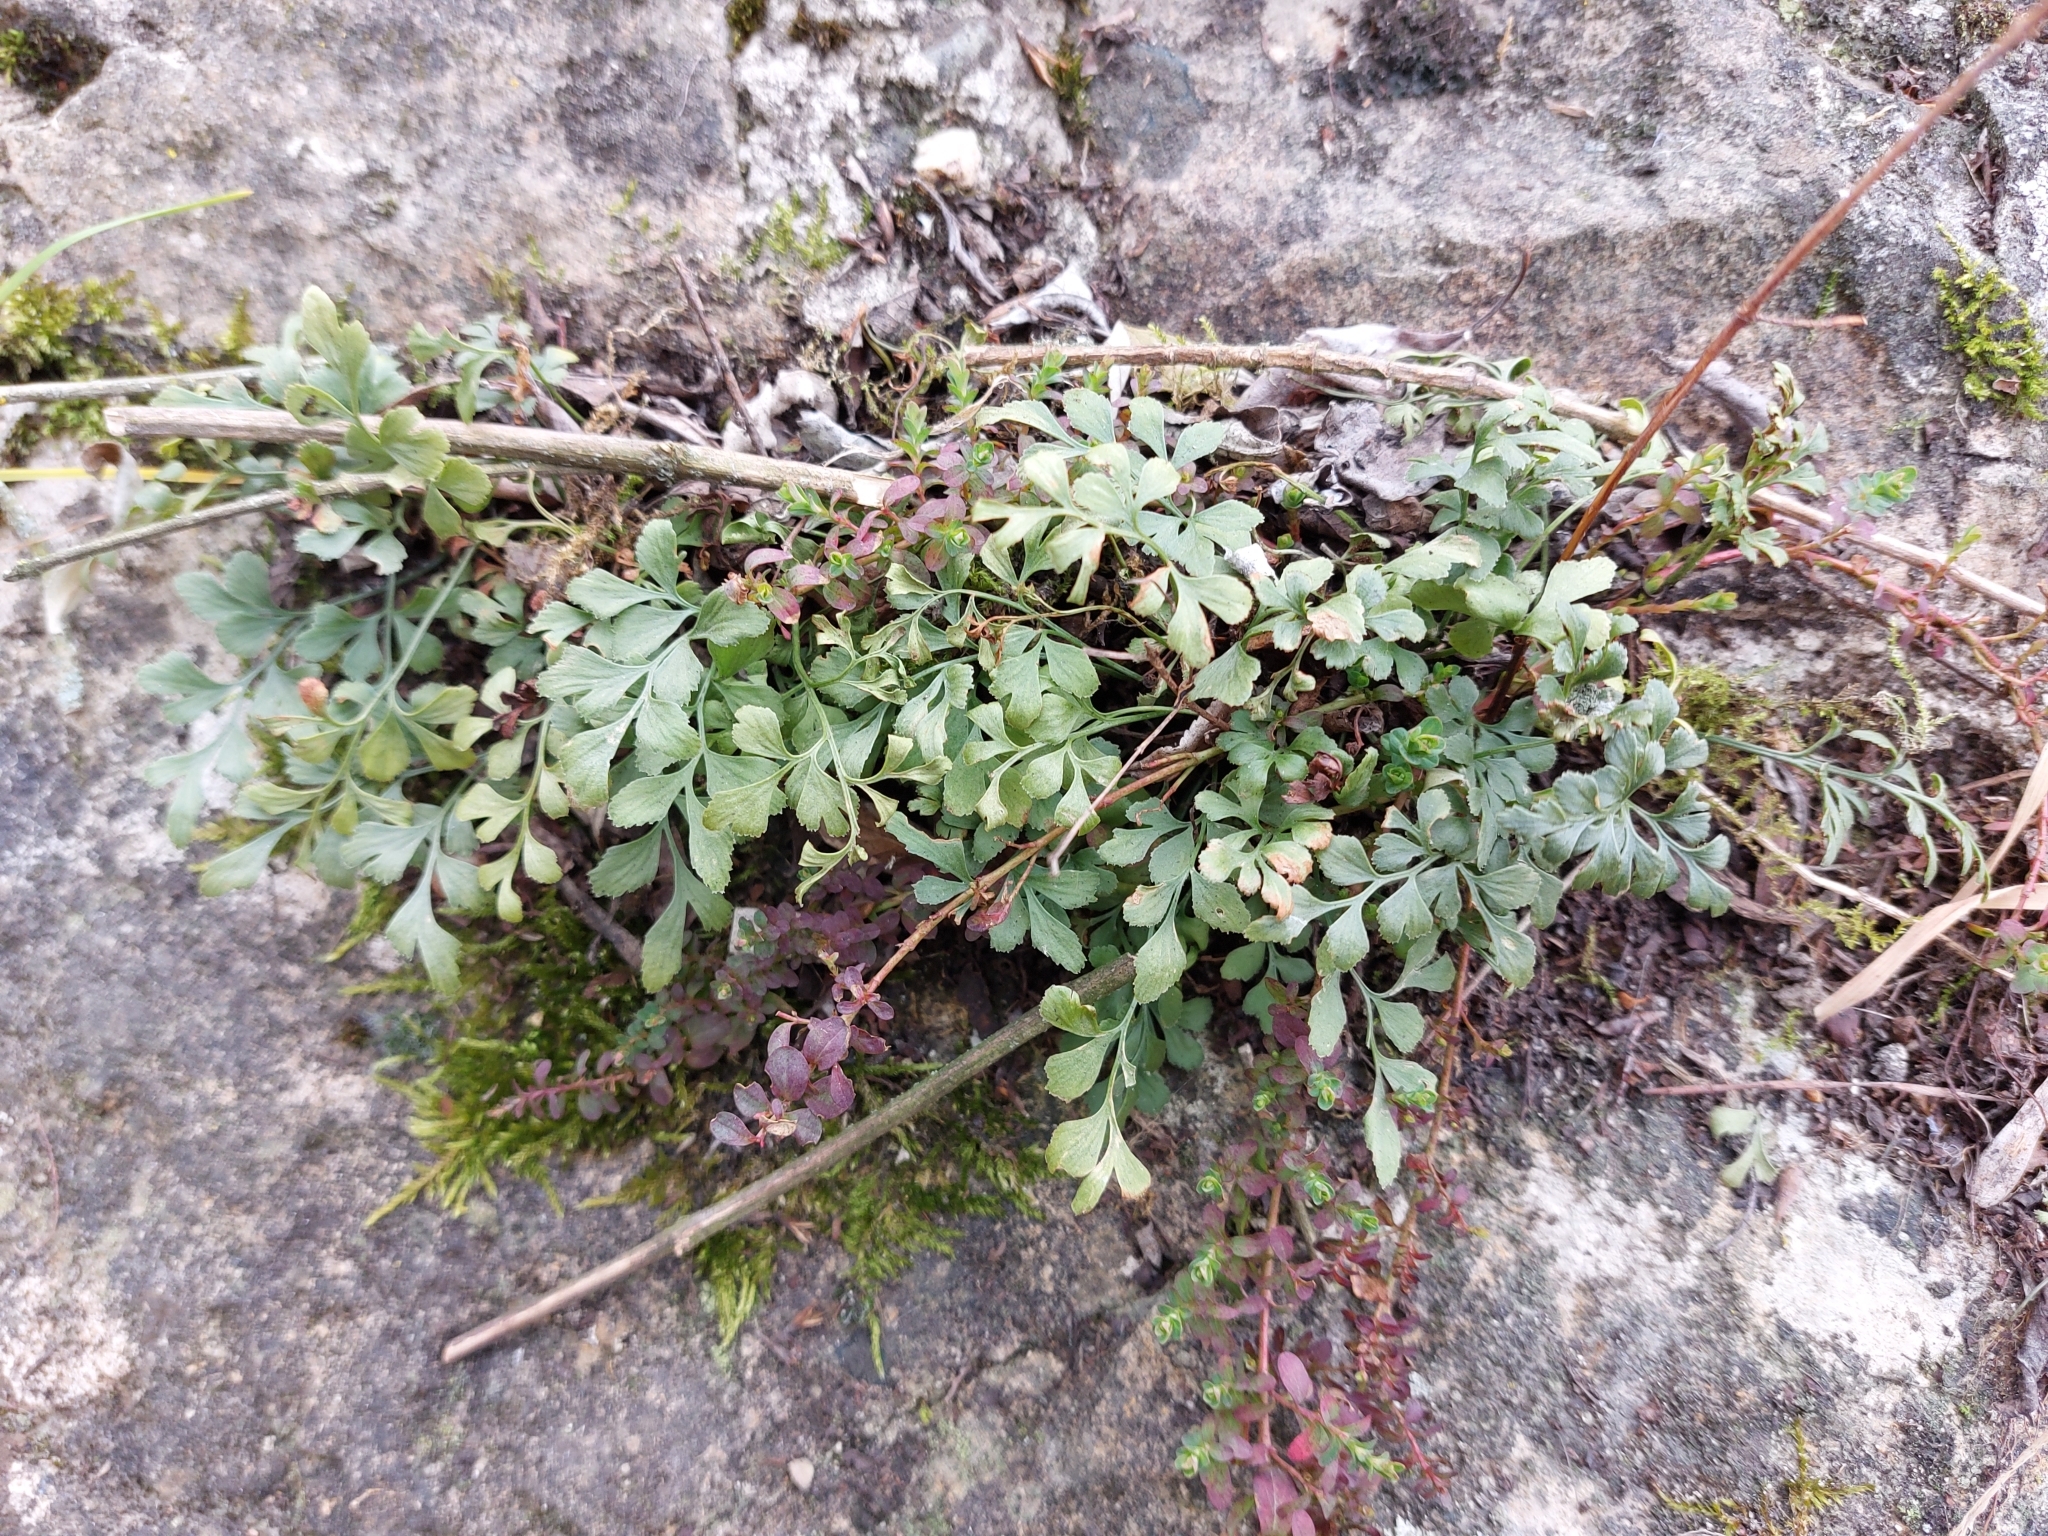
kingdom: Plantae
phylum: Tracheophyta
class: Polypodiopsida
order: Polypodiales
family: Aspleniaceae
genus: Asplenium
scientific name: Asplenium ruta-muraria
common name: Wall-rue
